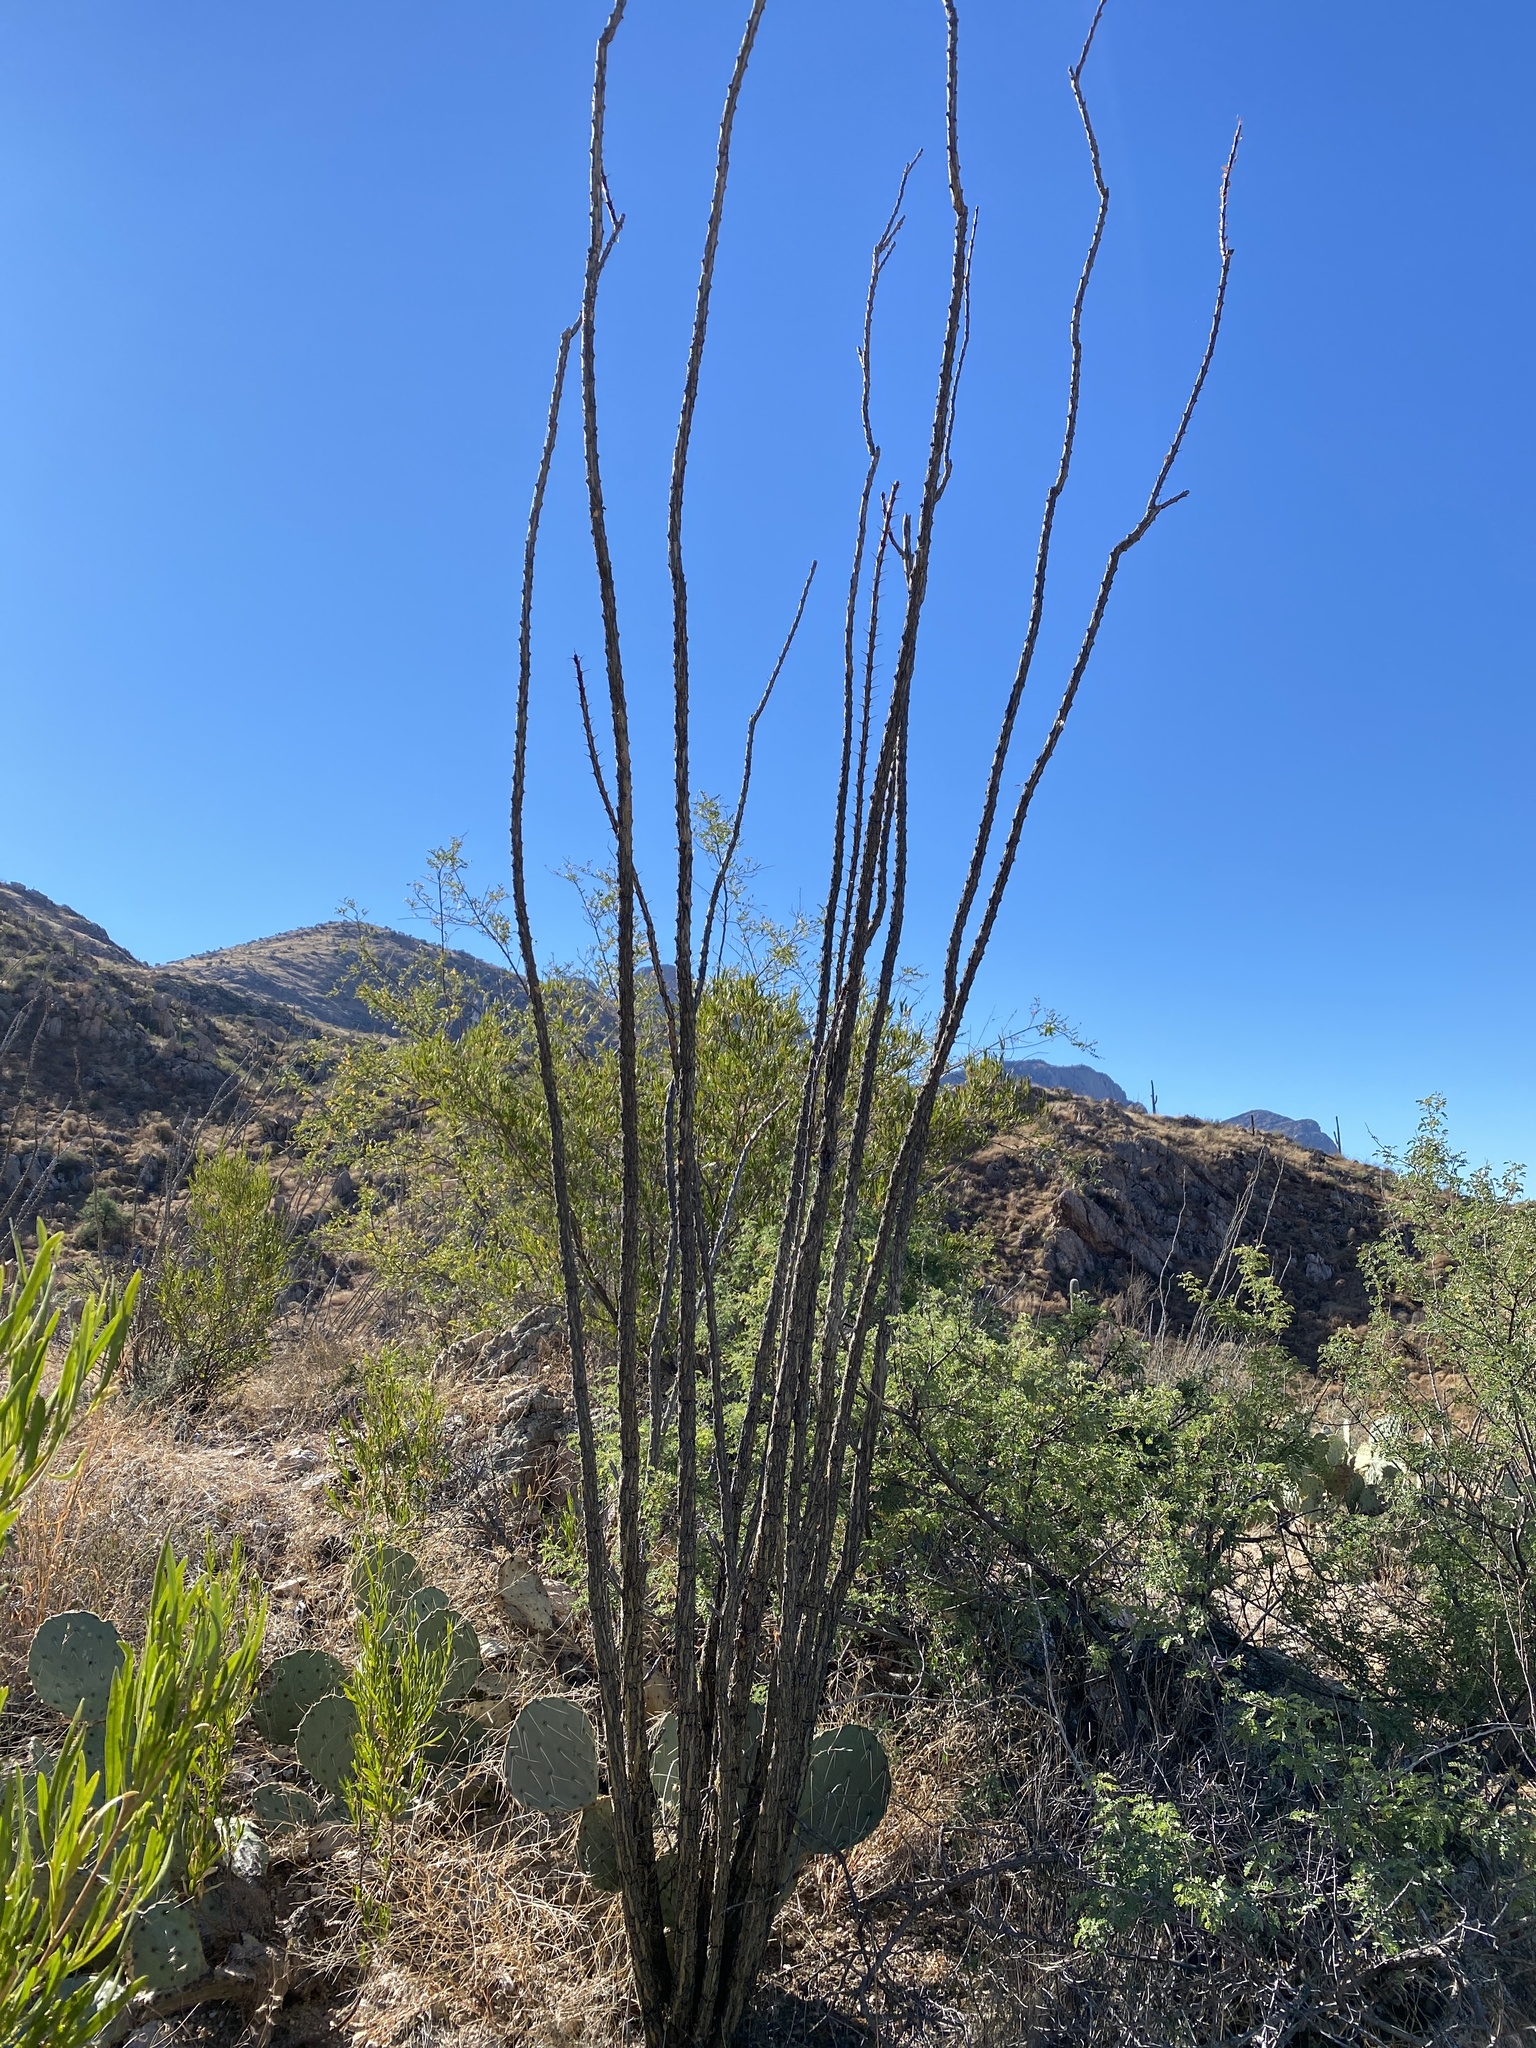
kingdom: Plantae
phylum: Tracheophyta
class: Magnoliopsida
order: Ericales
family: Fouquieriaceae
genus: Fouquieria
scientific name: Fouquieria splendens
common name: Vine-cactus
